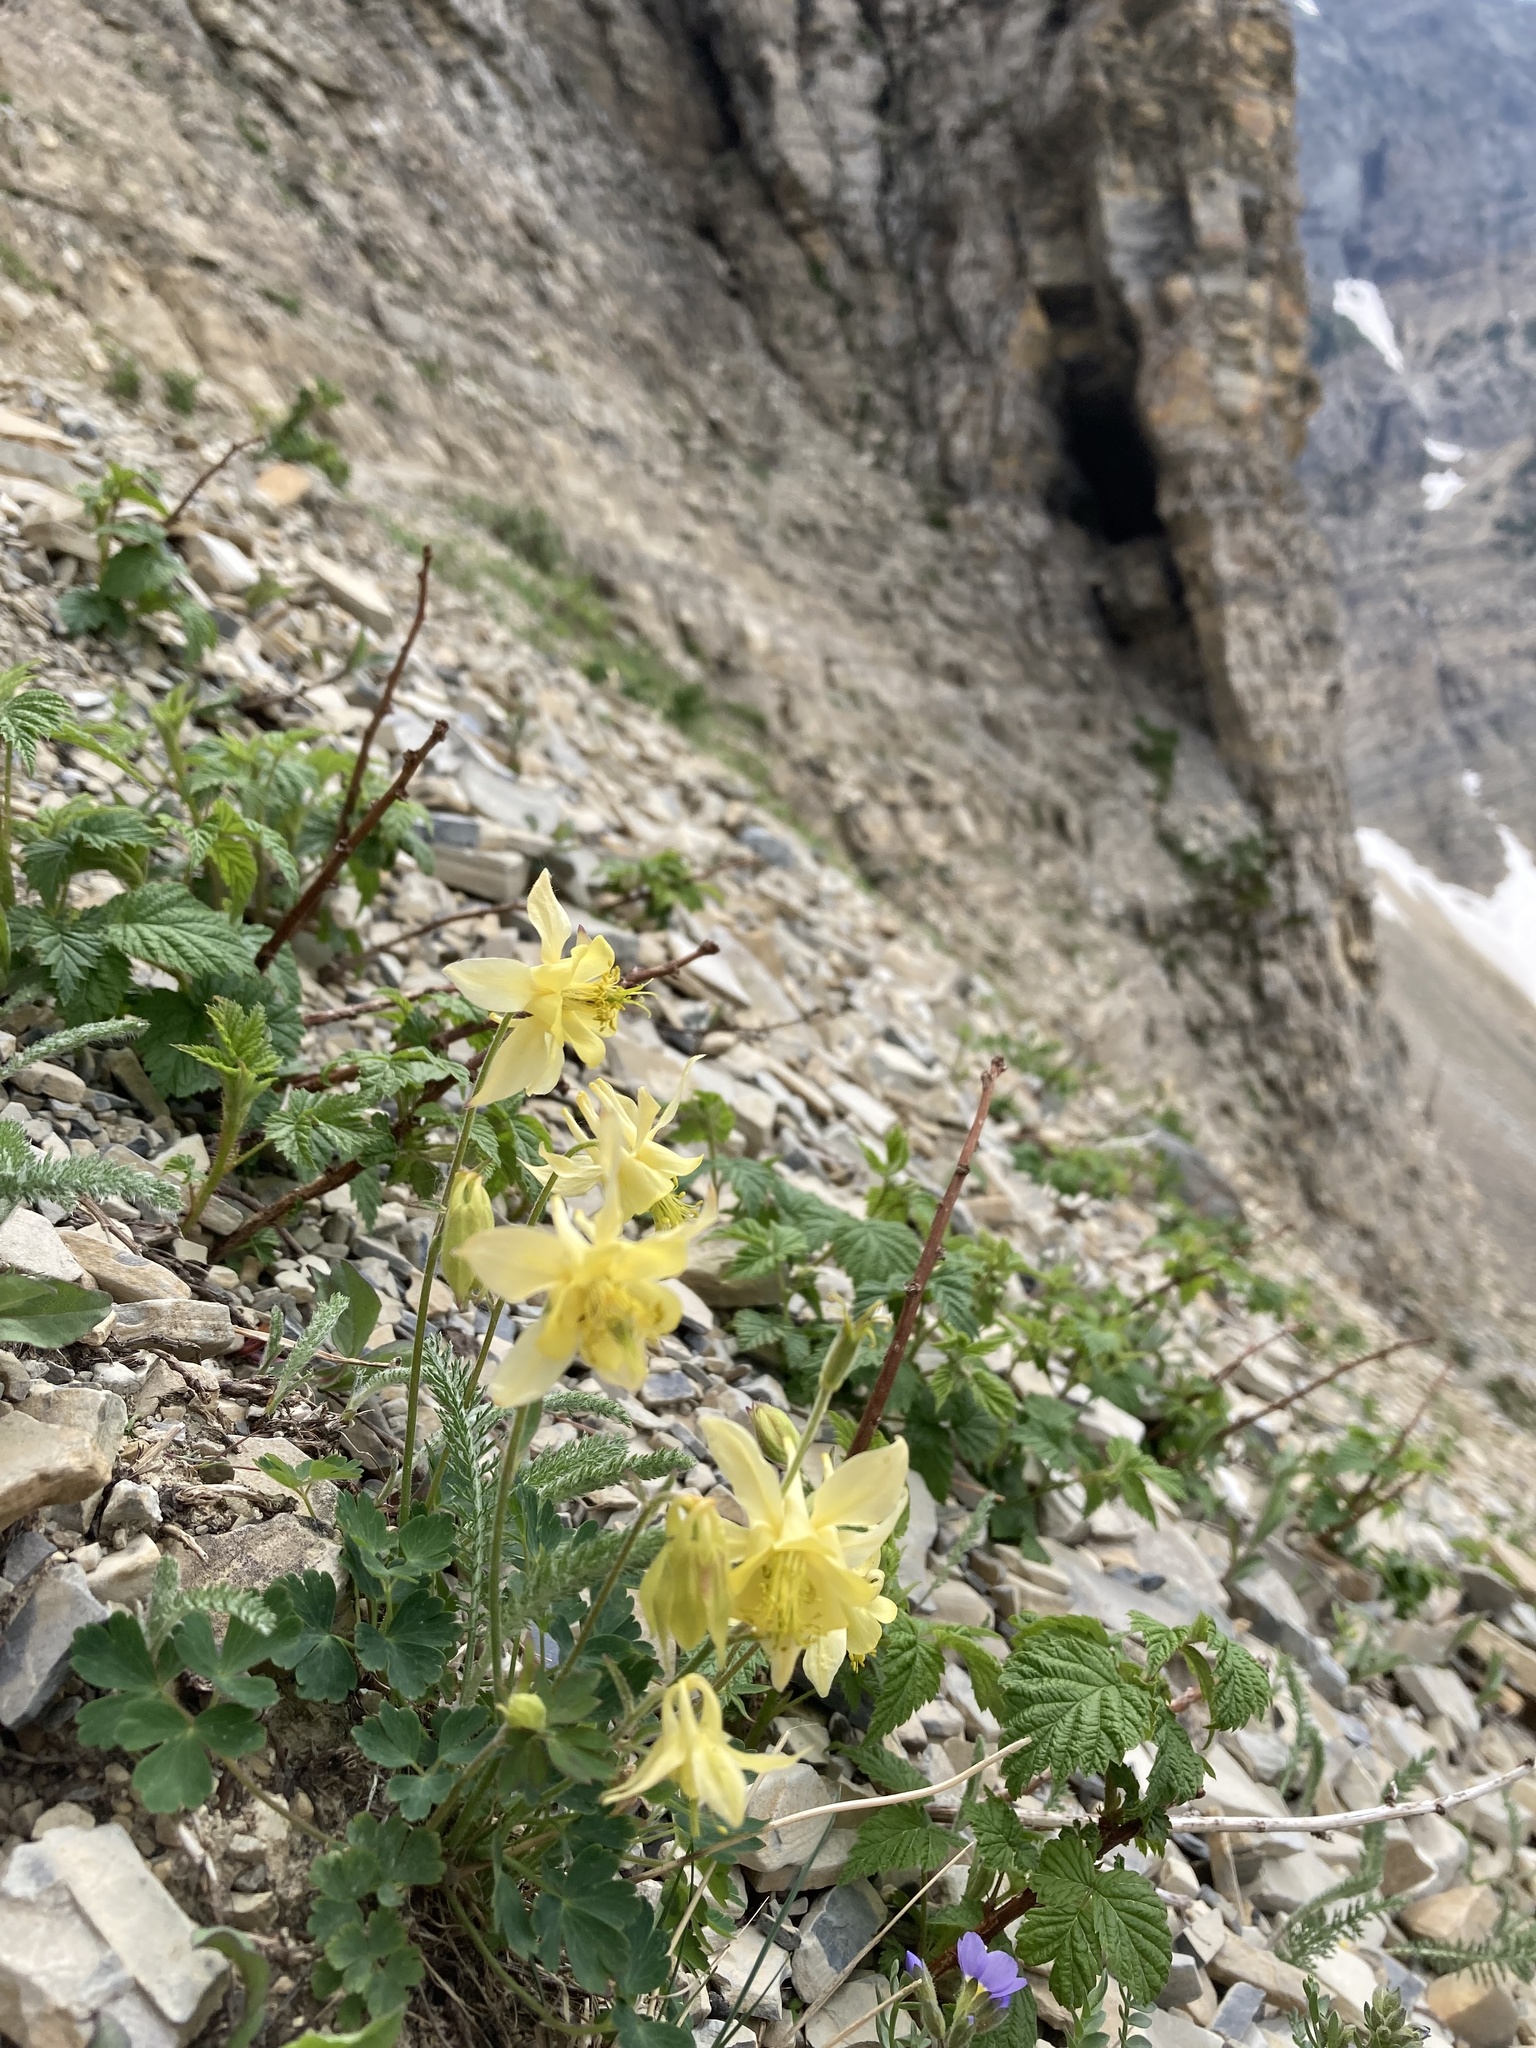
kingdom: Plantae
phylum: Tracheophyta
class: Magnoliopsida
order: Ranunculales
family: Ranunculaceae
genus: Aquilegia
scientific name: Aquilegia flavescens
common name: Yellow columbine
